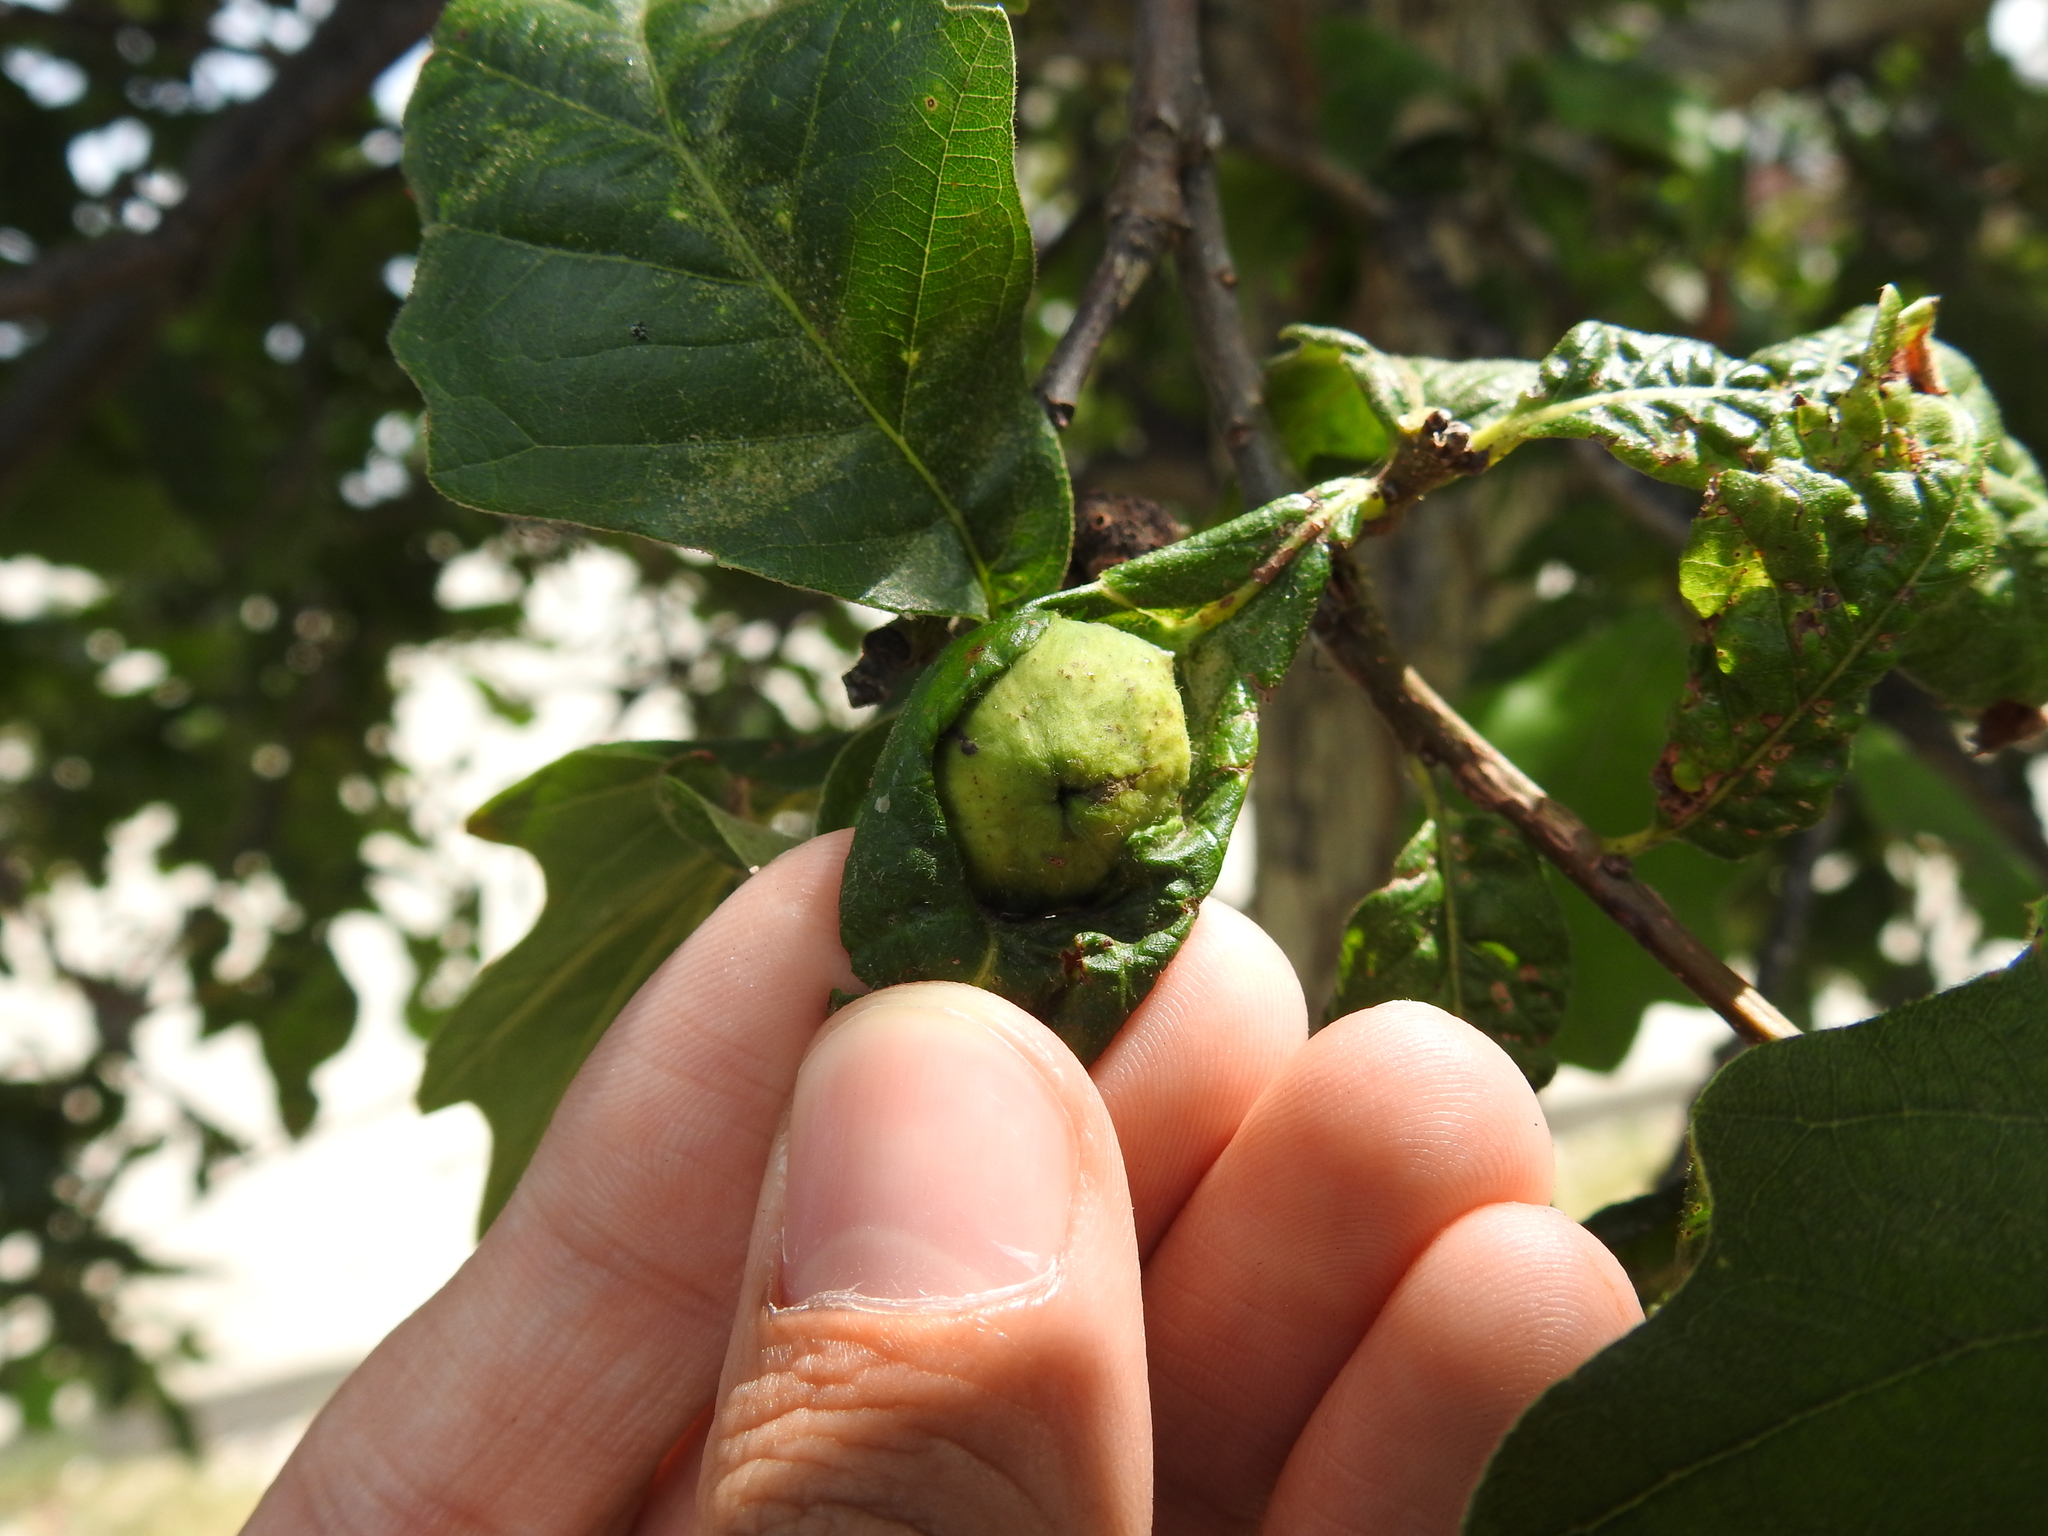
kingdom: Animalia
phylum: Arthropoda
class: Insecta
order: Hymenoptera
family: Cynipidae
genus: Andricus
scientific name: Andricus
